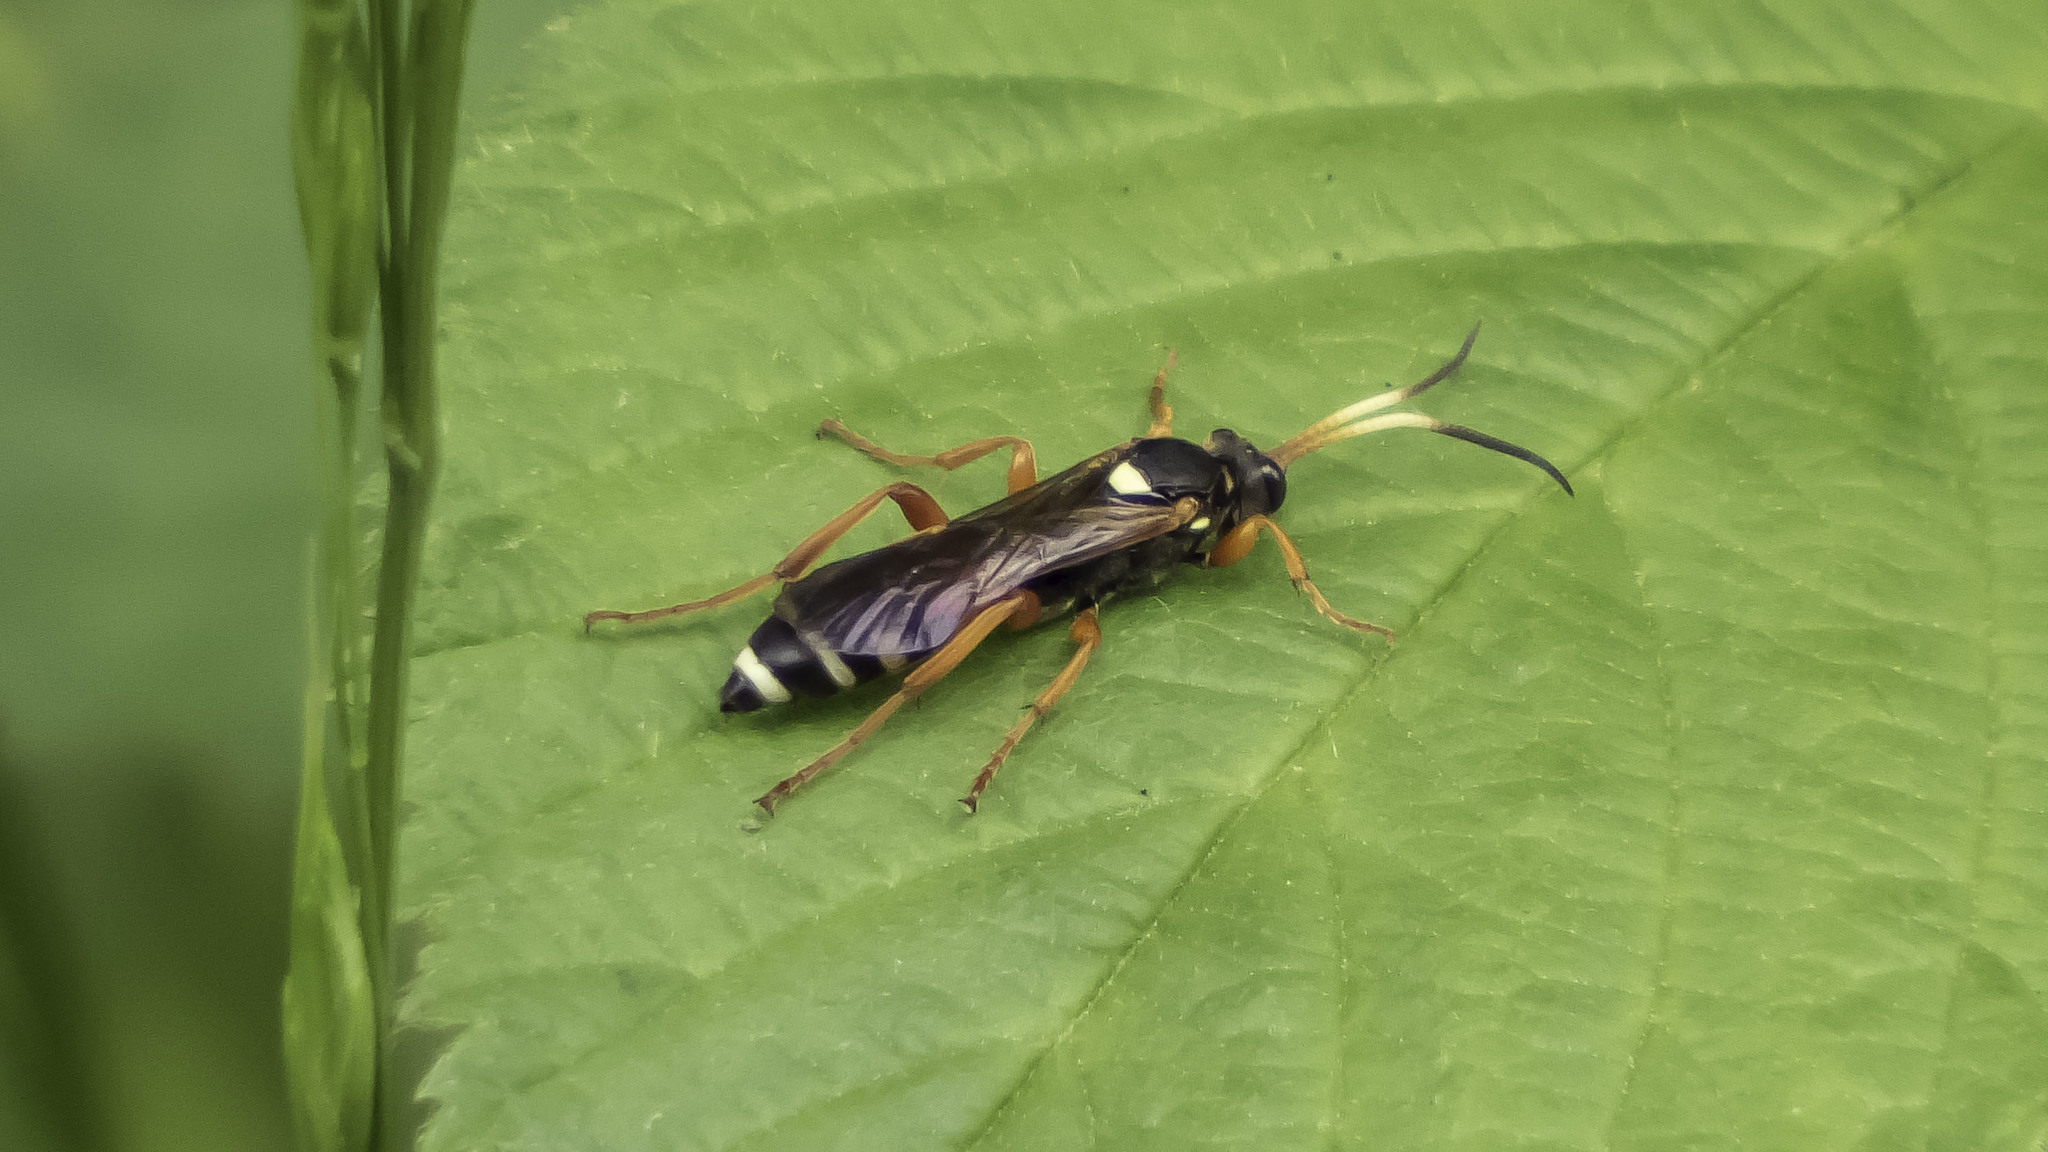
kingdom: Animalia
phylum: Arthropoda
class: Insecta
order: Hymenoptera
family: Ichneumonidae
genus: Ichneumon
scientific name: Ichneumon ambulatorius
